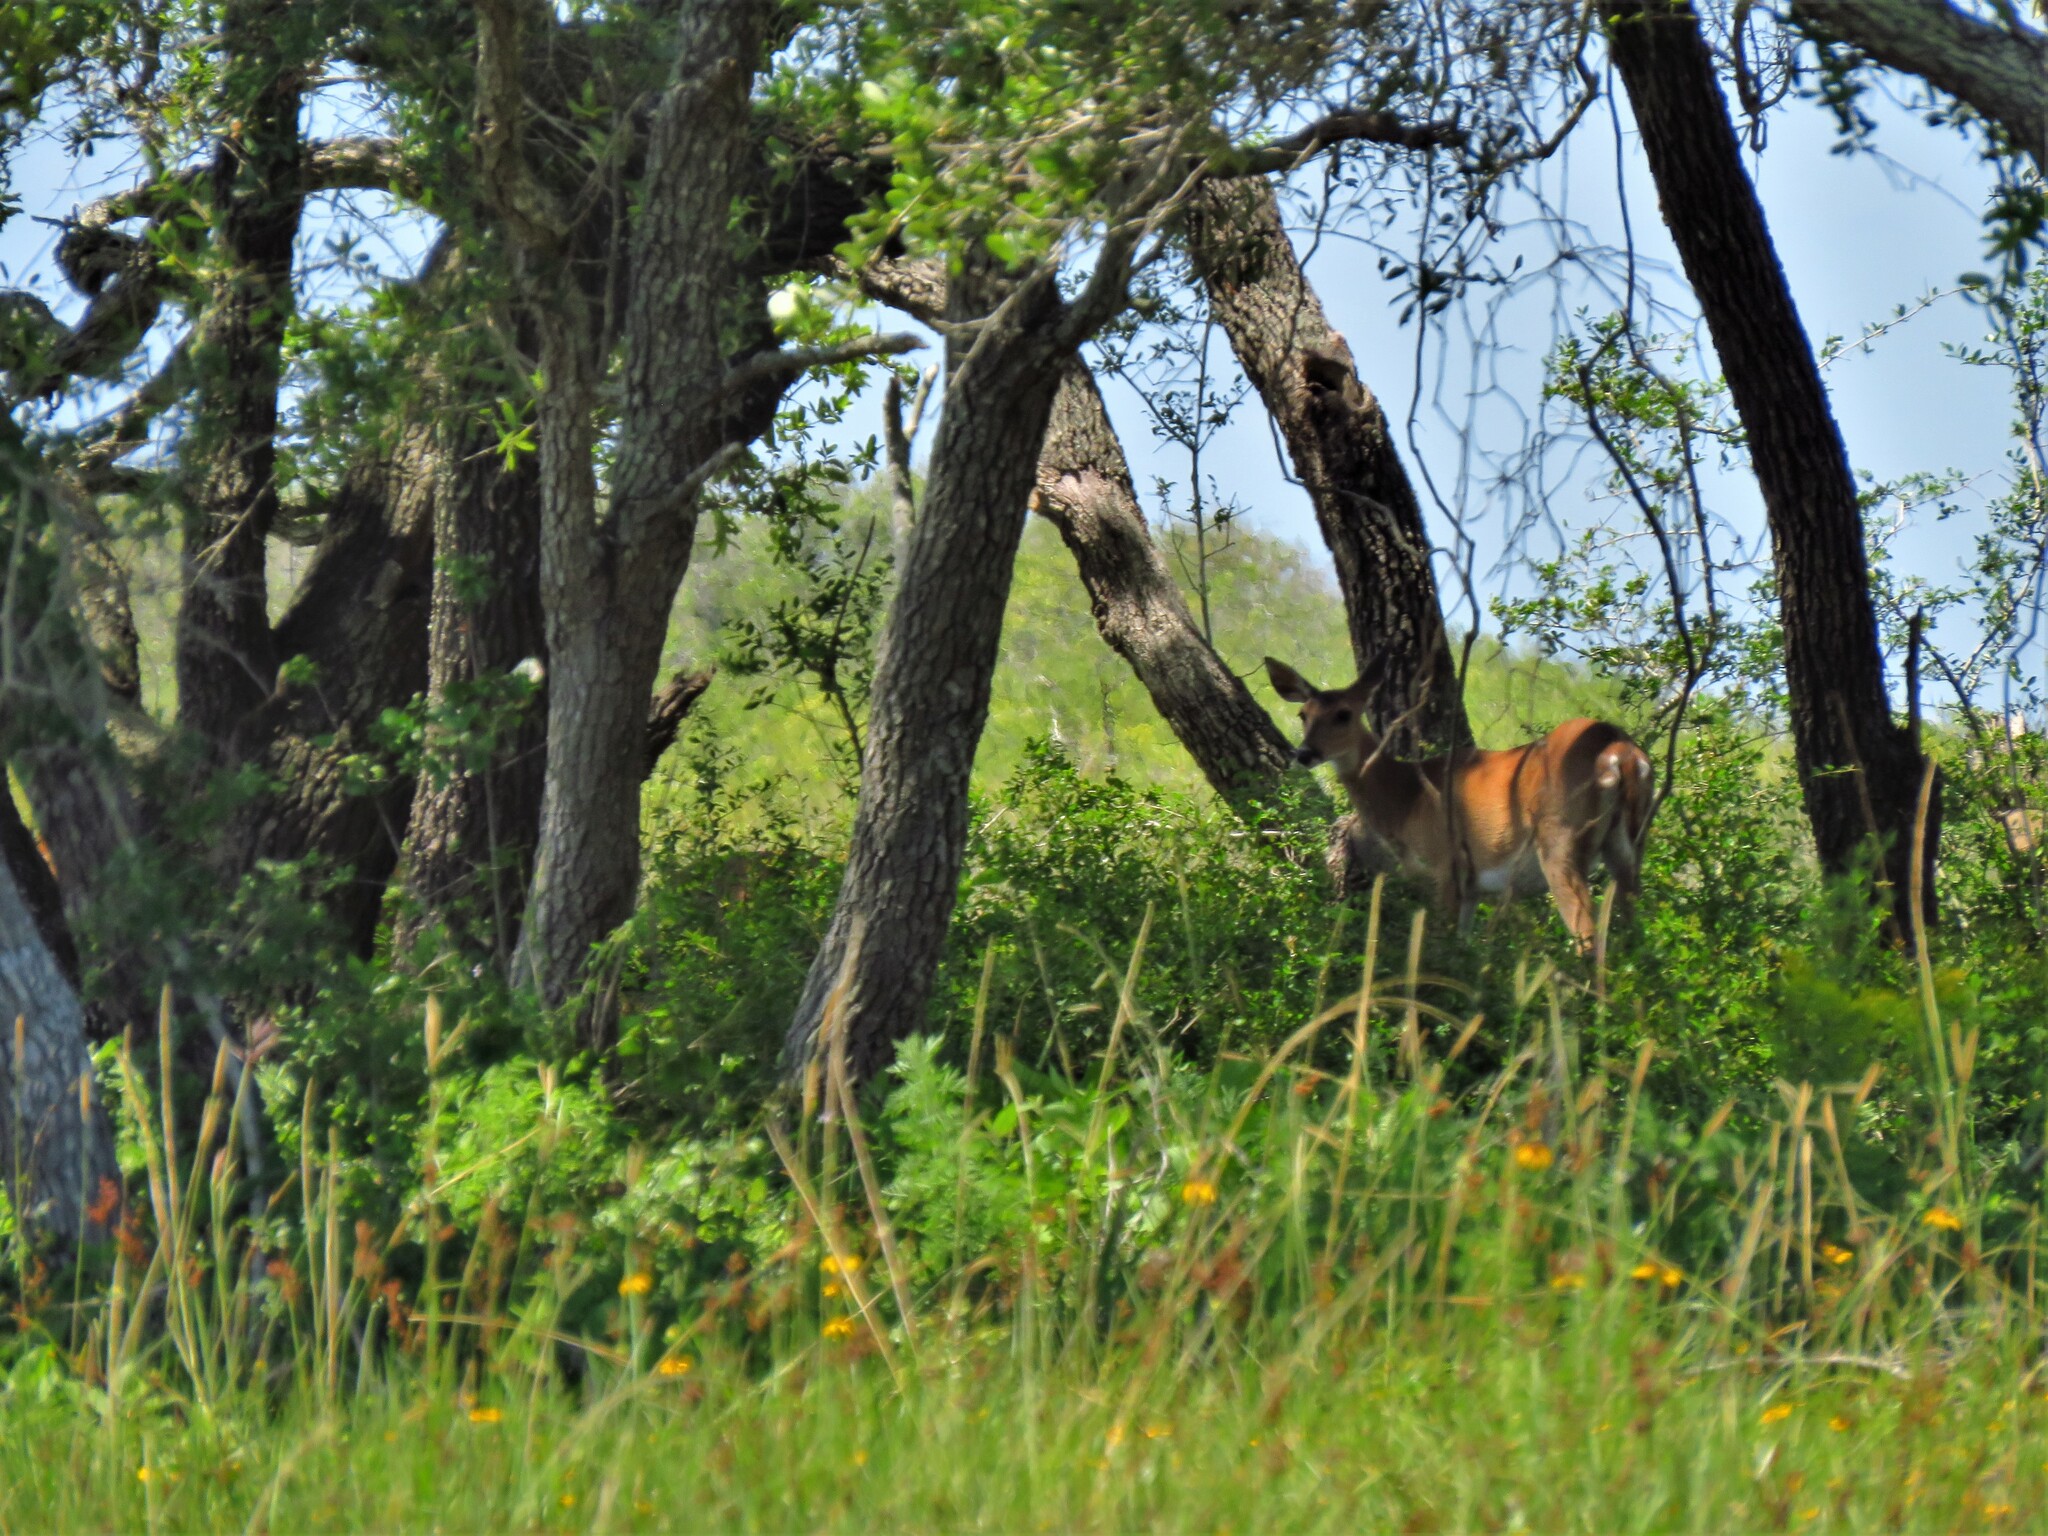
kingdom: Animalia
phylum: Chordata
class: Mammalia
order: Artiodactyla
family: Cervidae
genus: Odocoileus
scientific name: Odocoileus virginianus
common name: White-tailed deer
